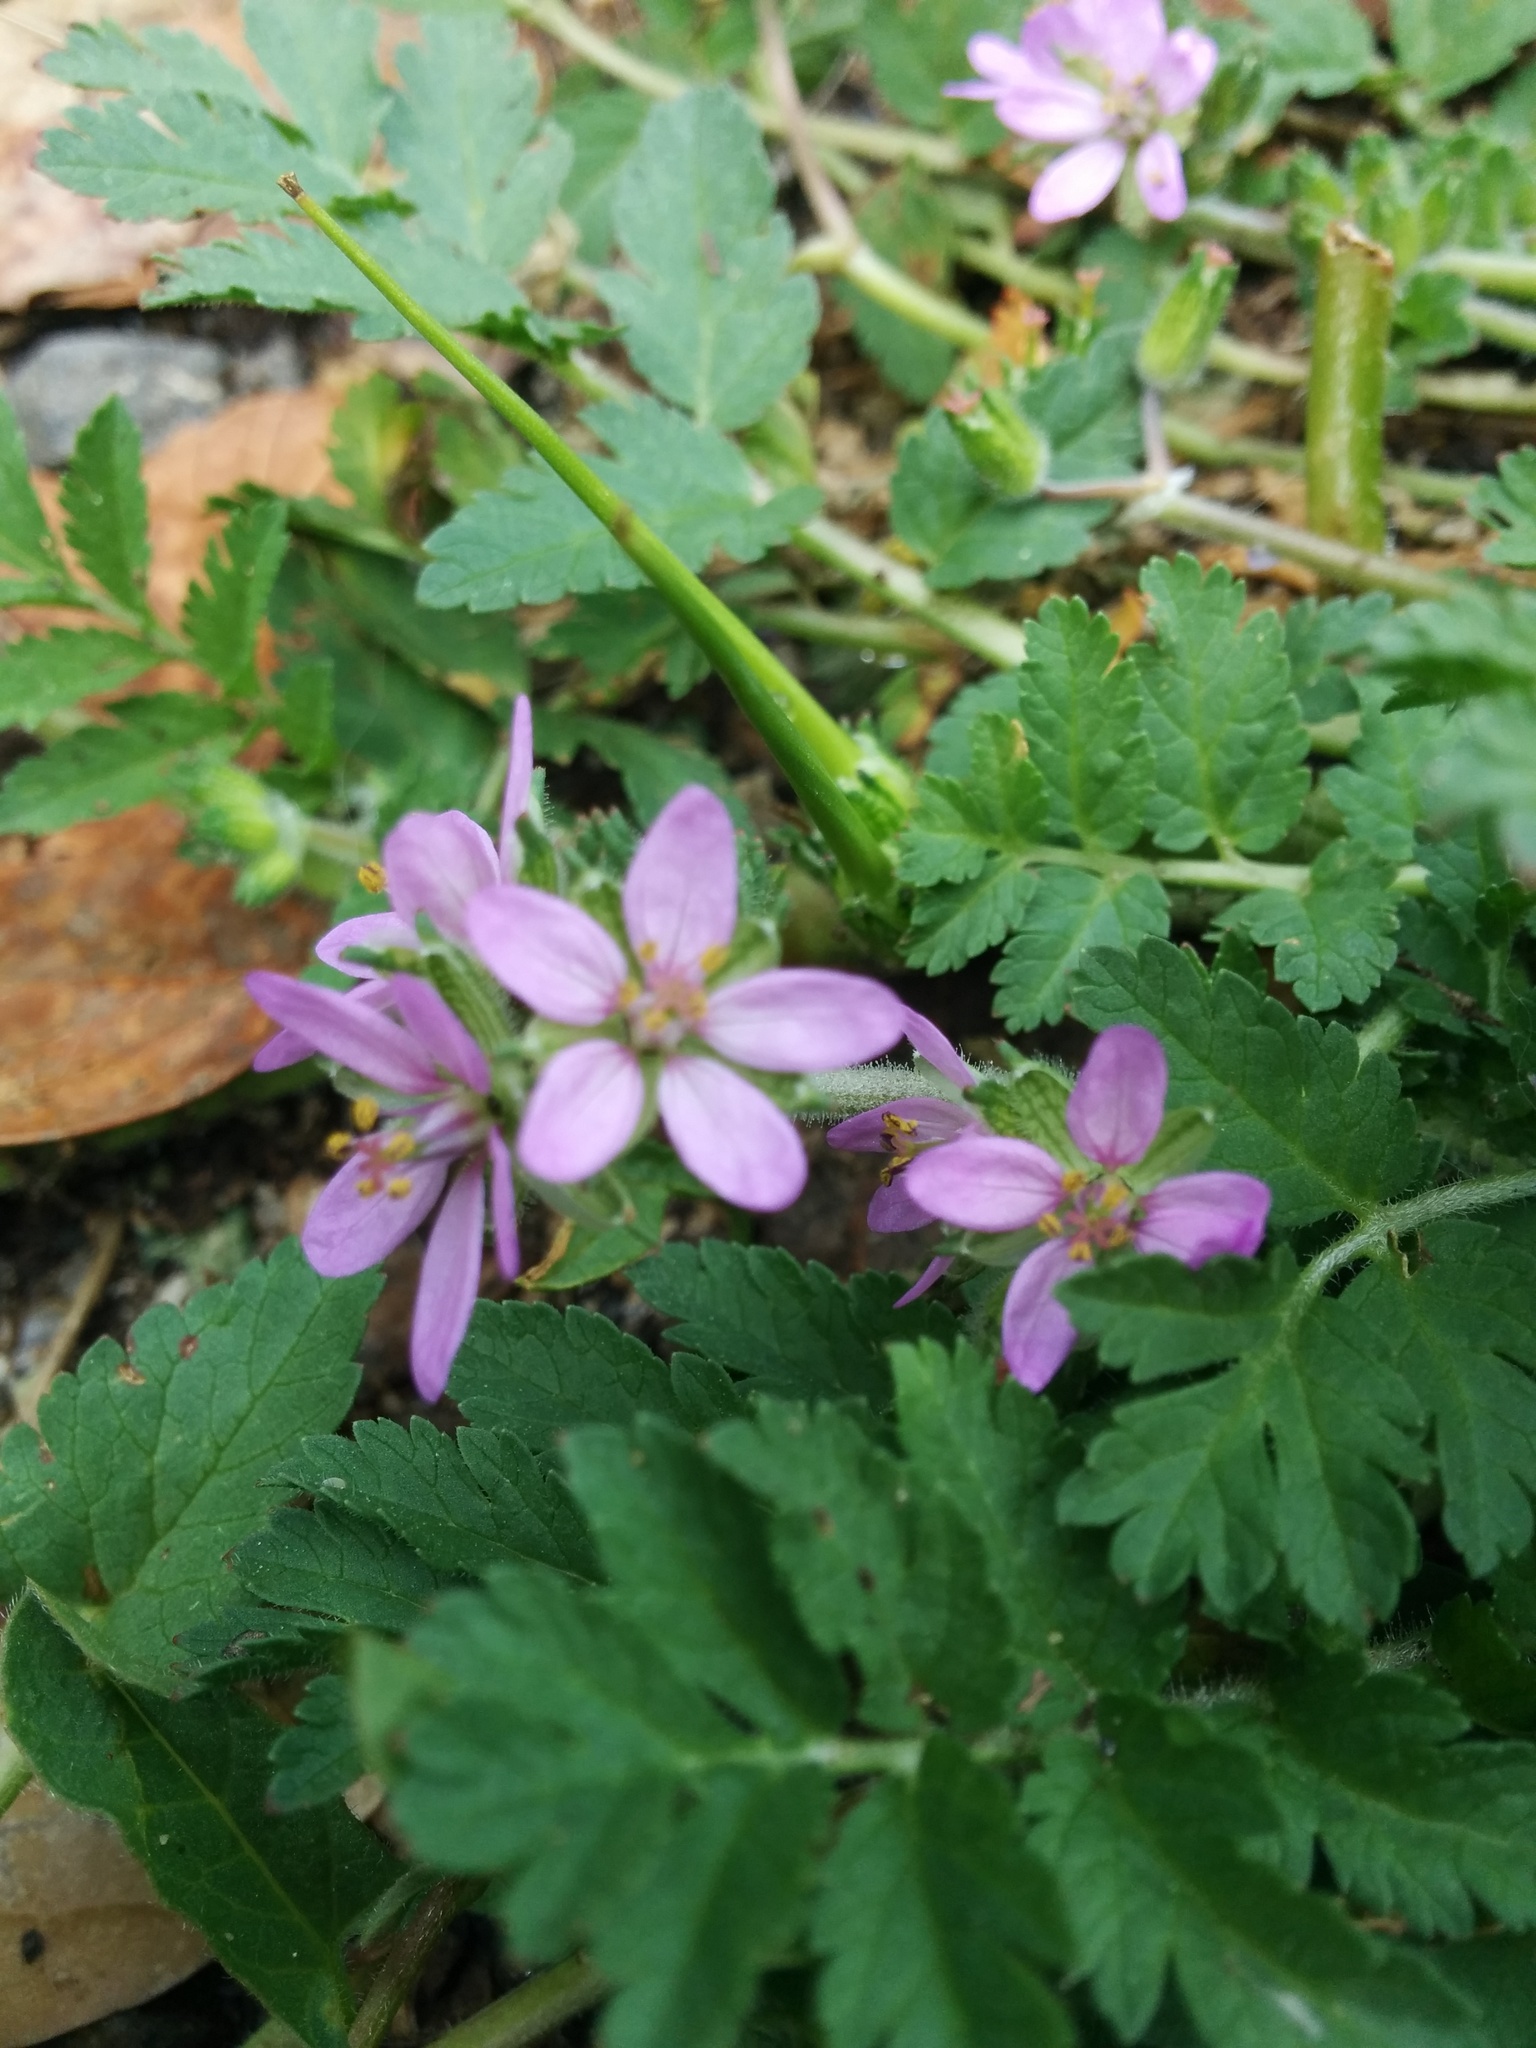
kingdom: Plantae
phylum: Tracheophyta
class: Magnoliopsida
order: Geraniales
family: Geraniaceae
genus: Erodium
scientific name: Erodium moschatum
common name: Musk stork's-bill
